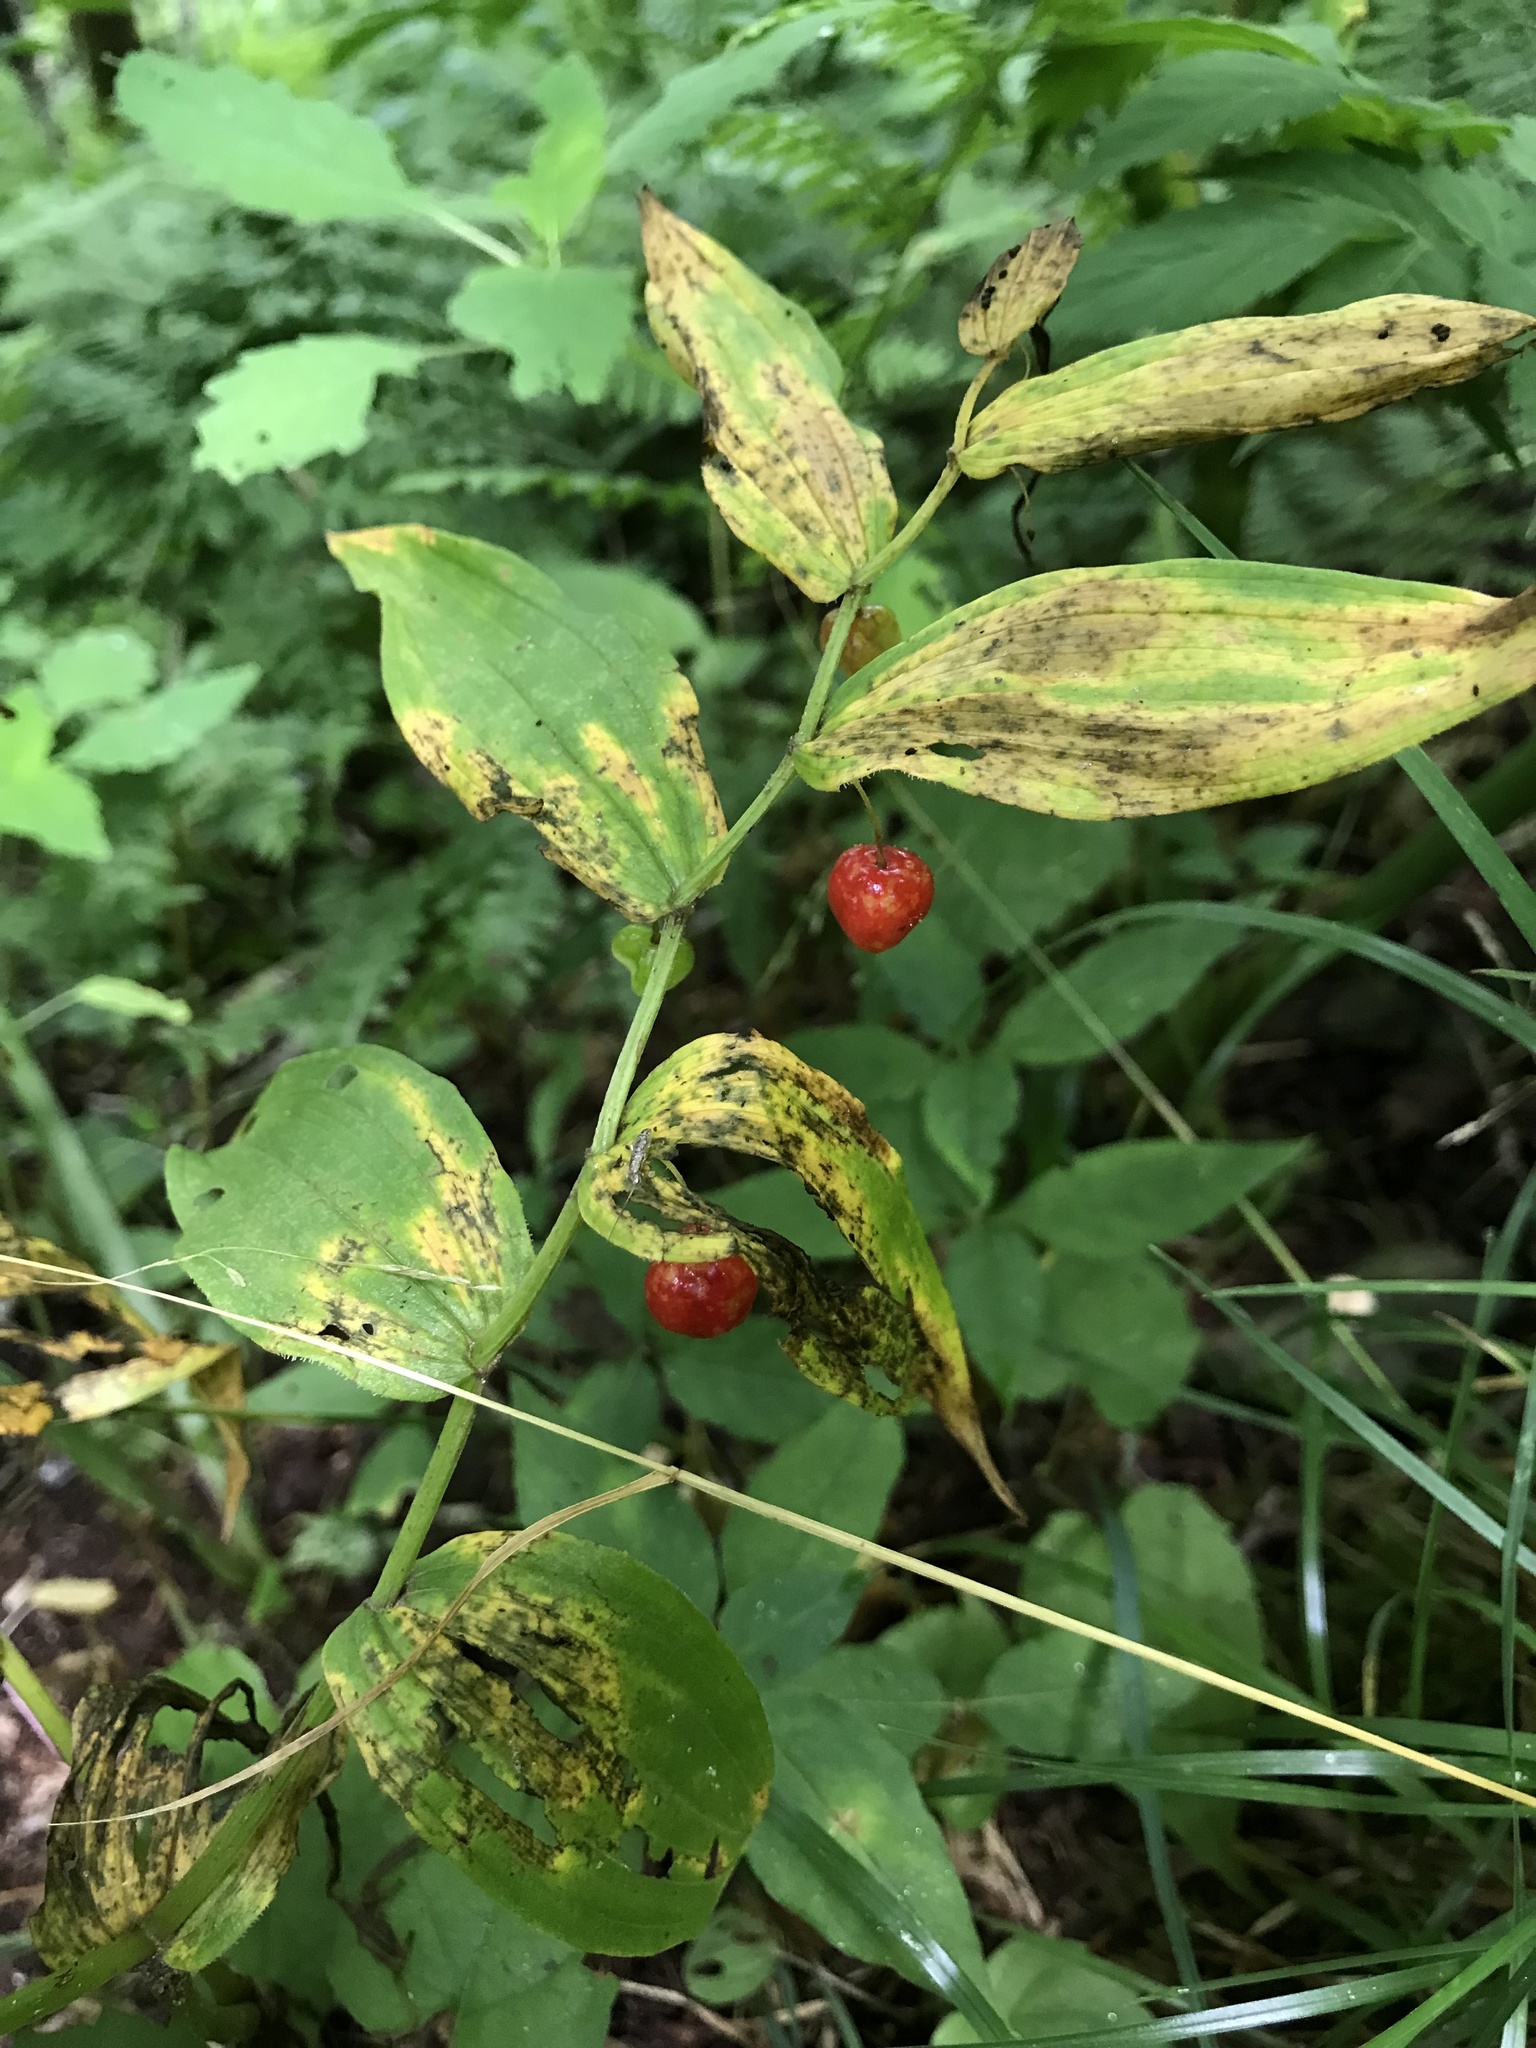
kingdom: Plantae
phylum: Tracheophyta
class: Liliopsida
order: Liliales
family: Liliaceae
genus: Streptopus
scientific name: Streptopus lanceolatus
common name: Rose mandarin
